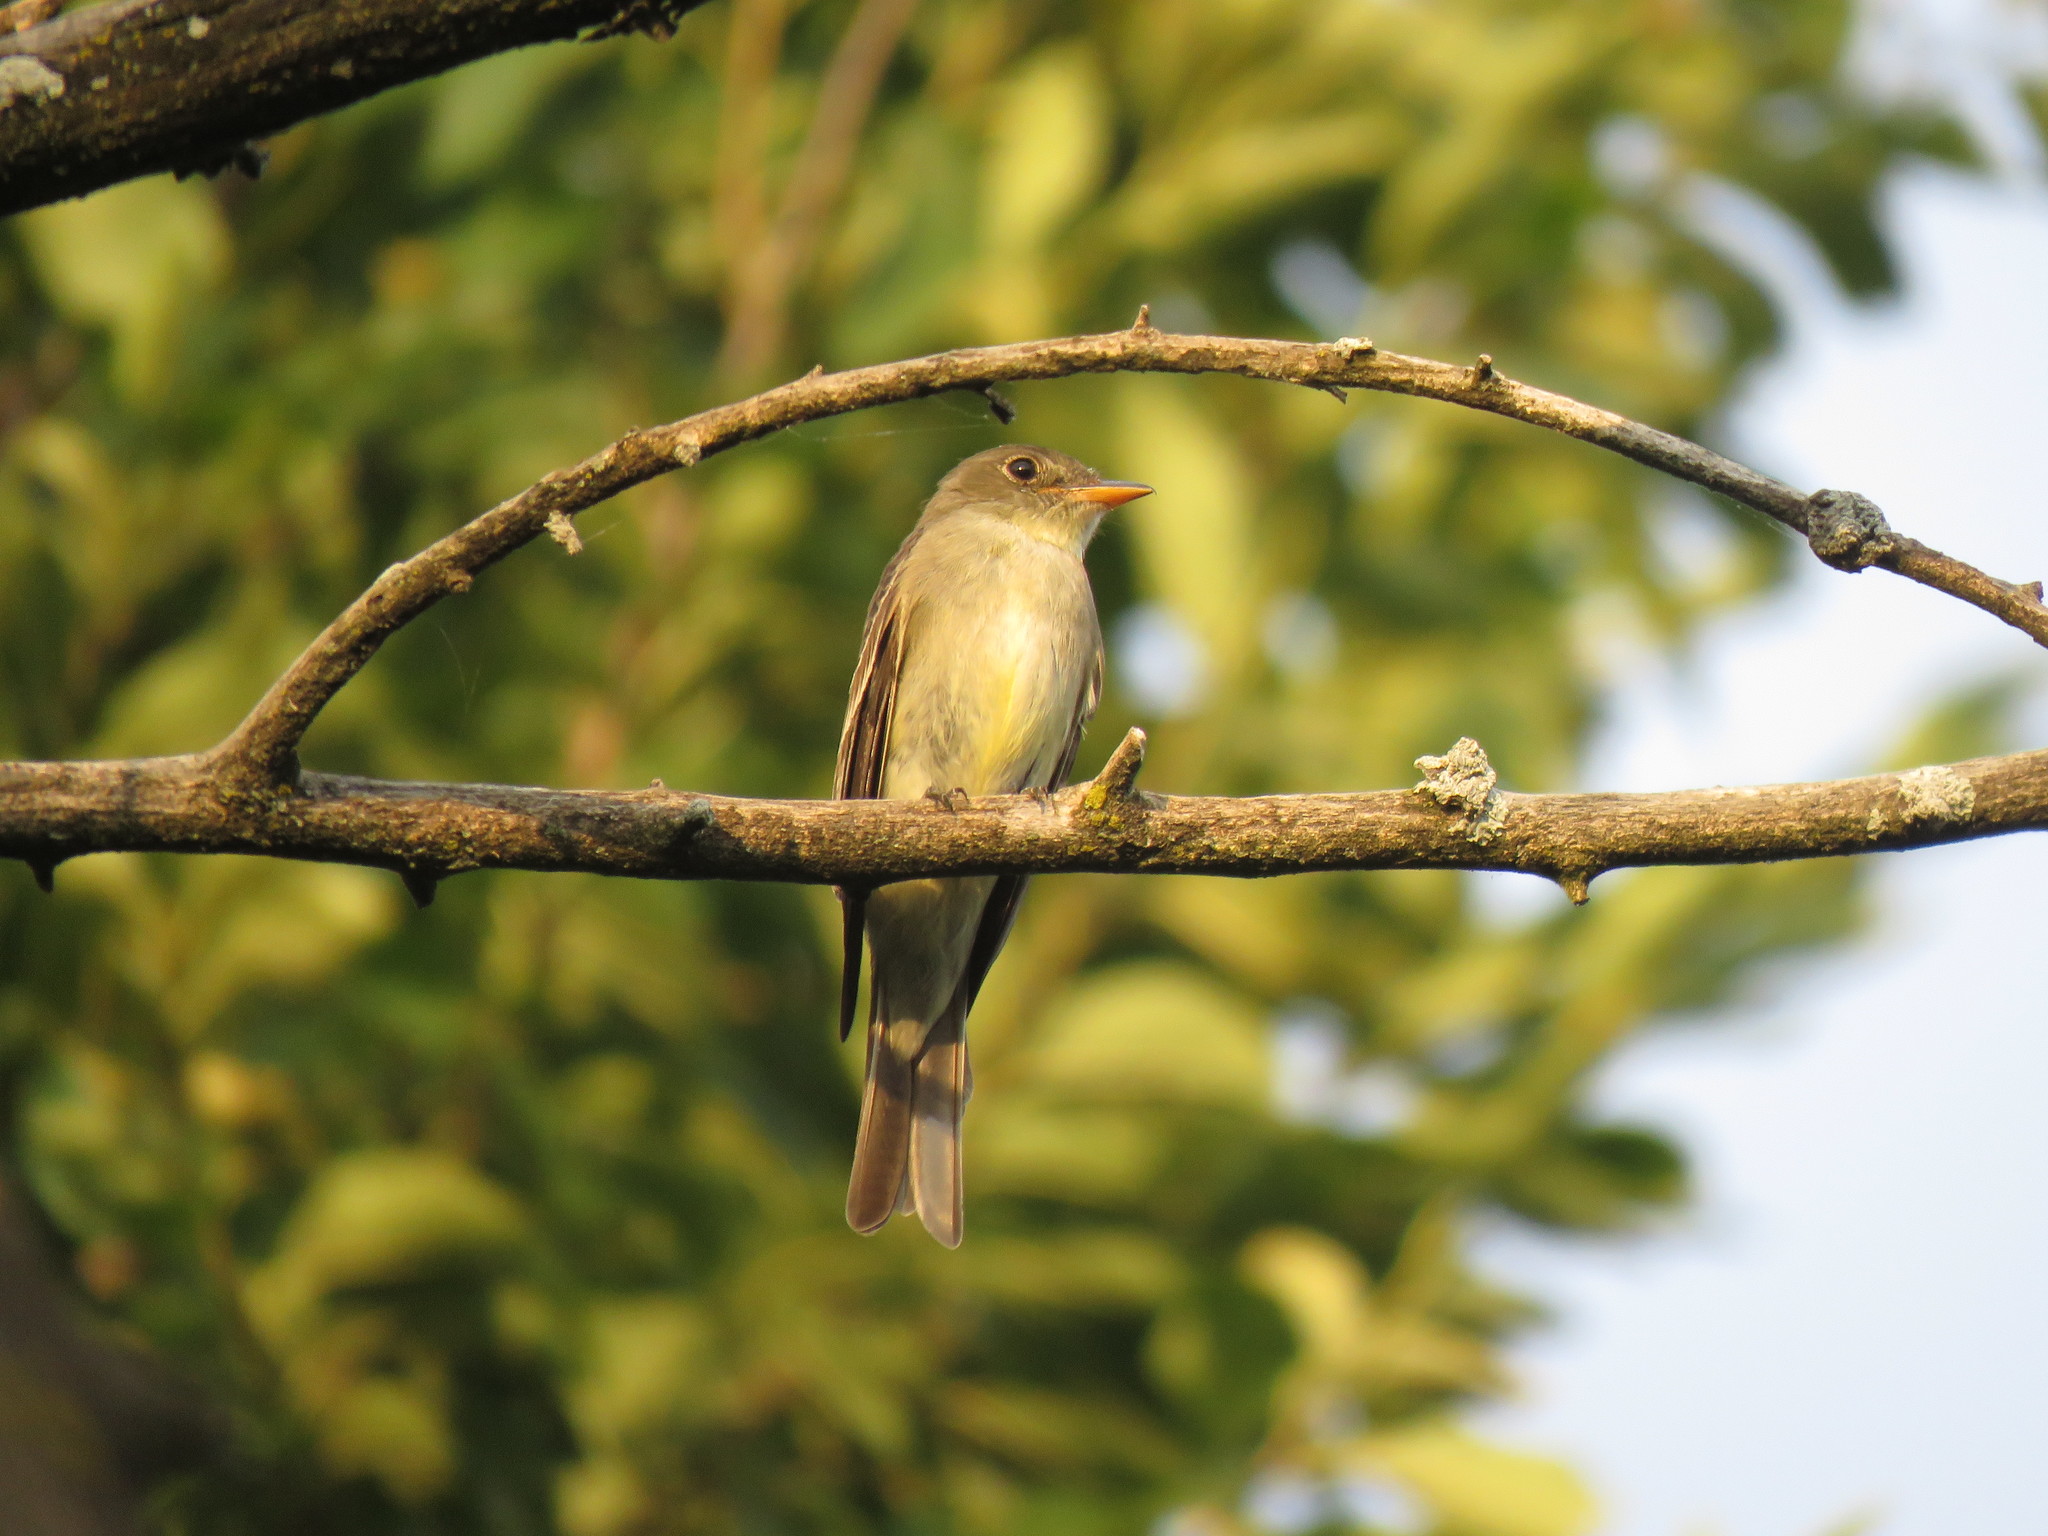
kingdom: Animalia
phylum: Chordata
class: Aves
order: Passeriformes
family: Tyrannidae
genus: Contopus
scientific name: Contopus virens
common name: Eastern wood-pewee
